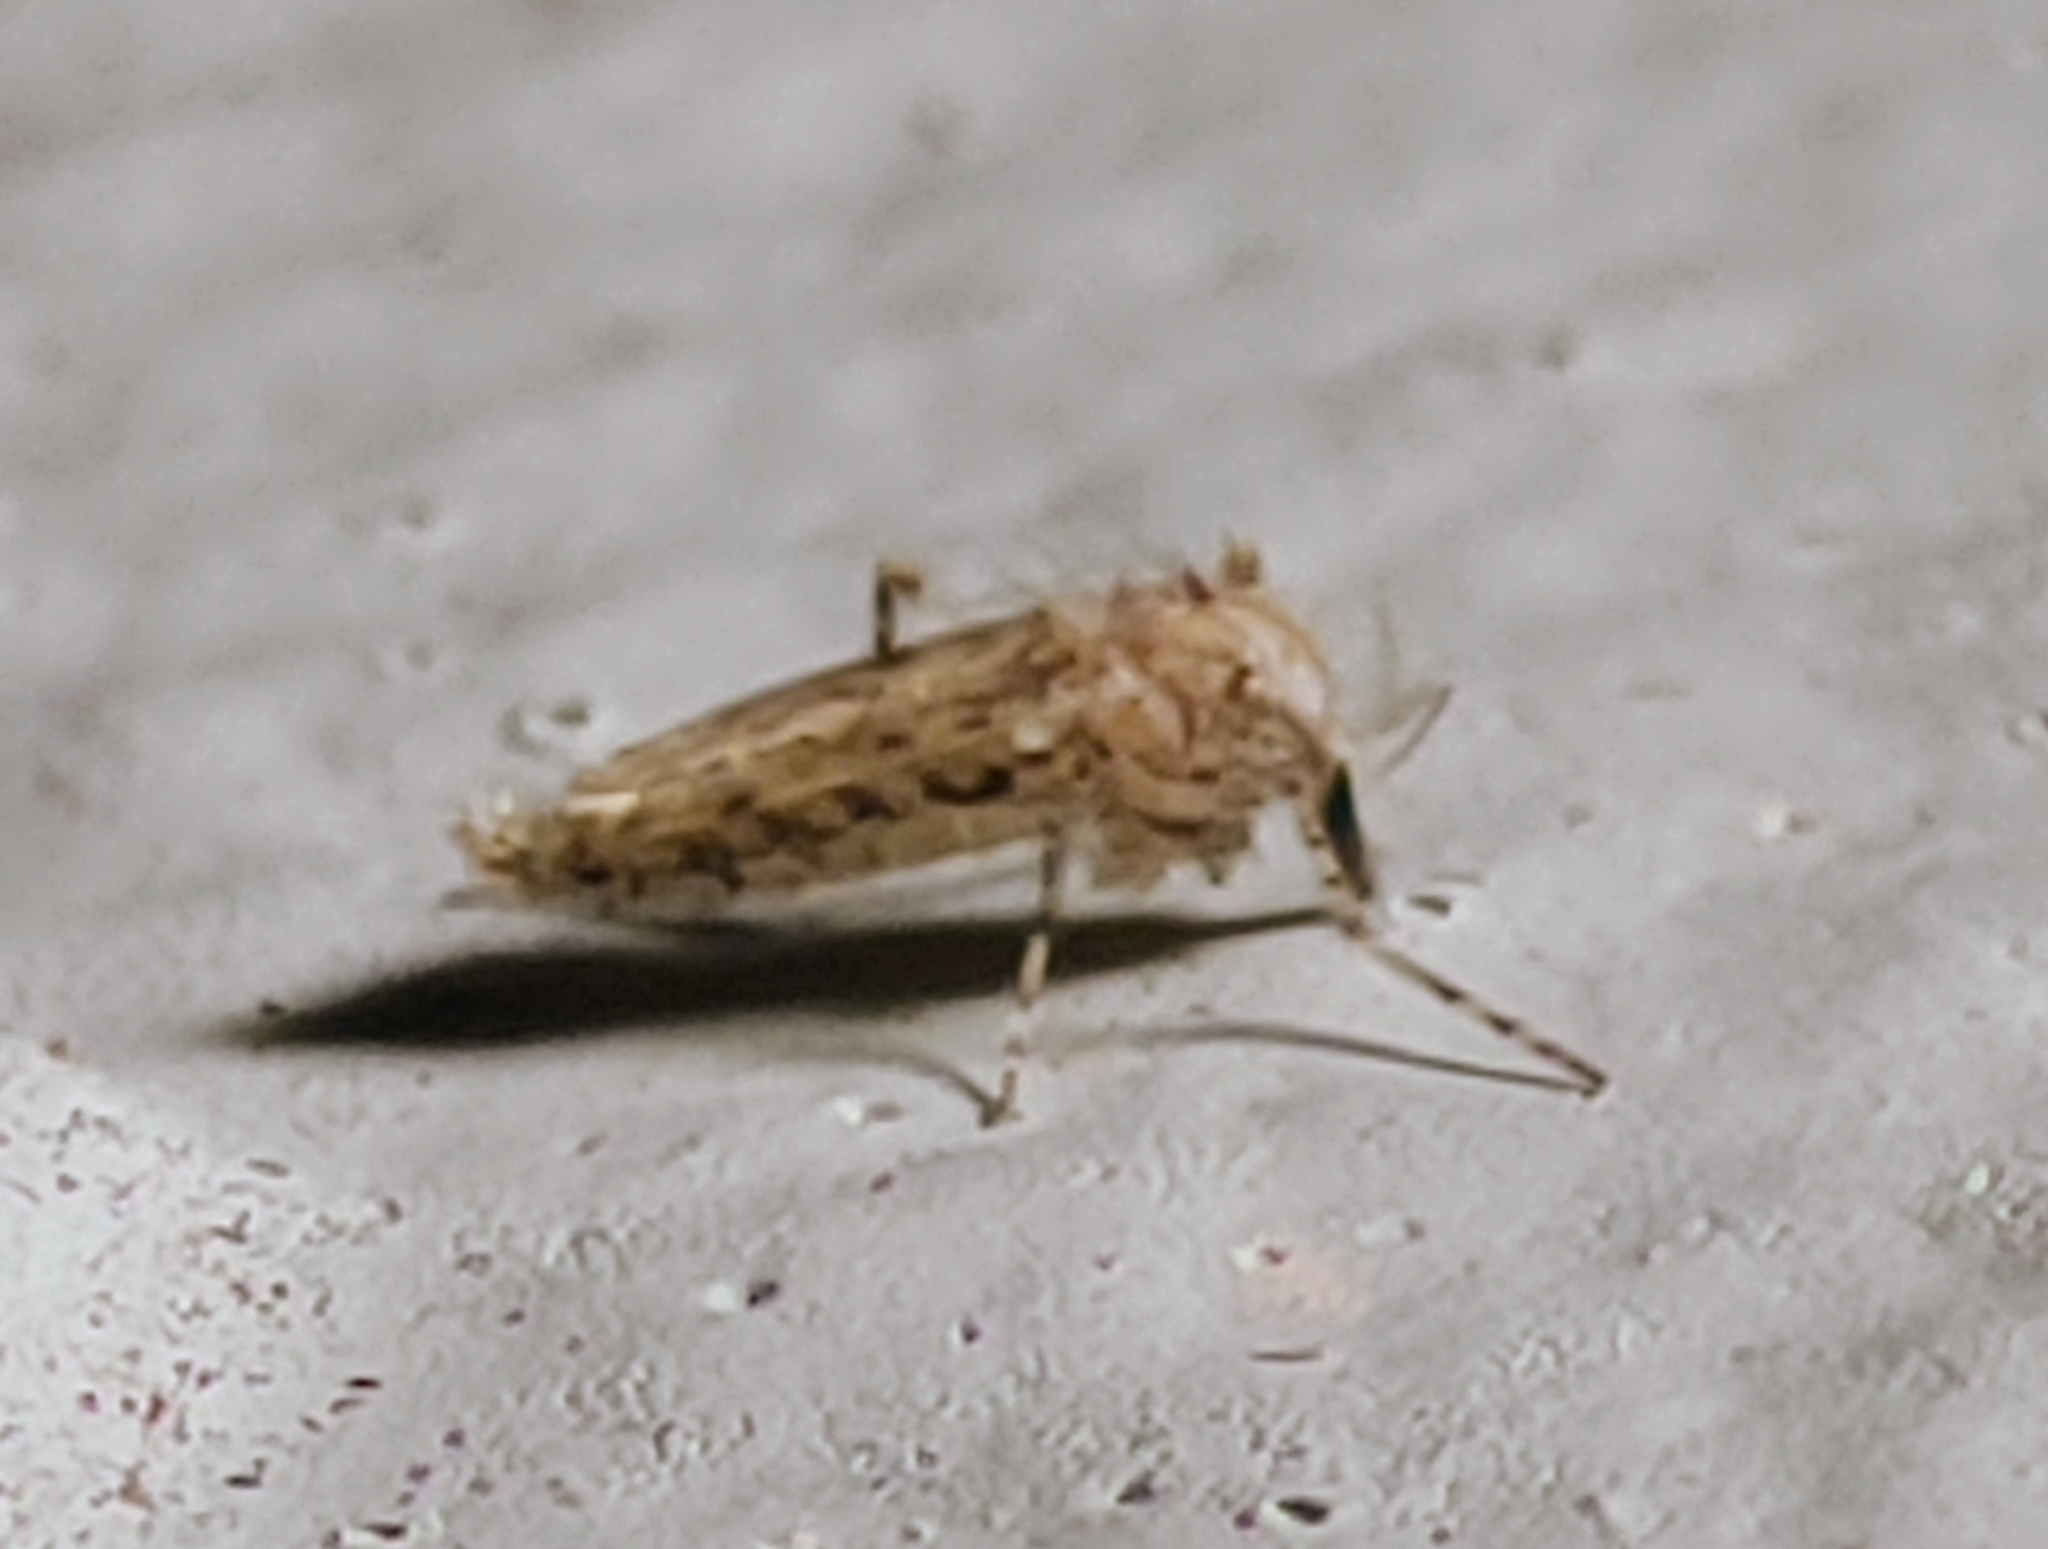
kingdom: Animalia
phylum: Arthropoda
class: Insecta
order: Diptera
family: Chaoboridae
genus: Chaoborus
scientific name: Chaoborus punctipennis
